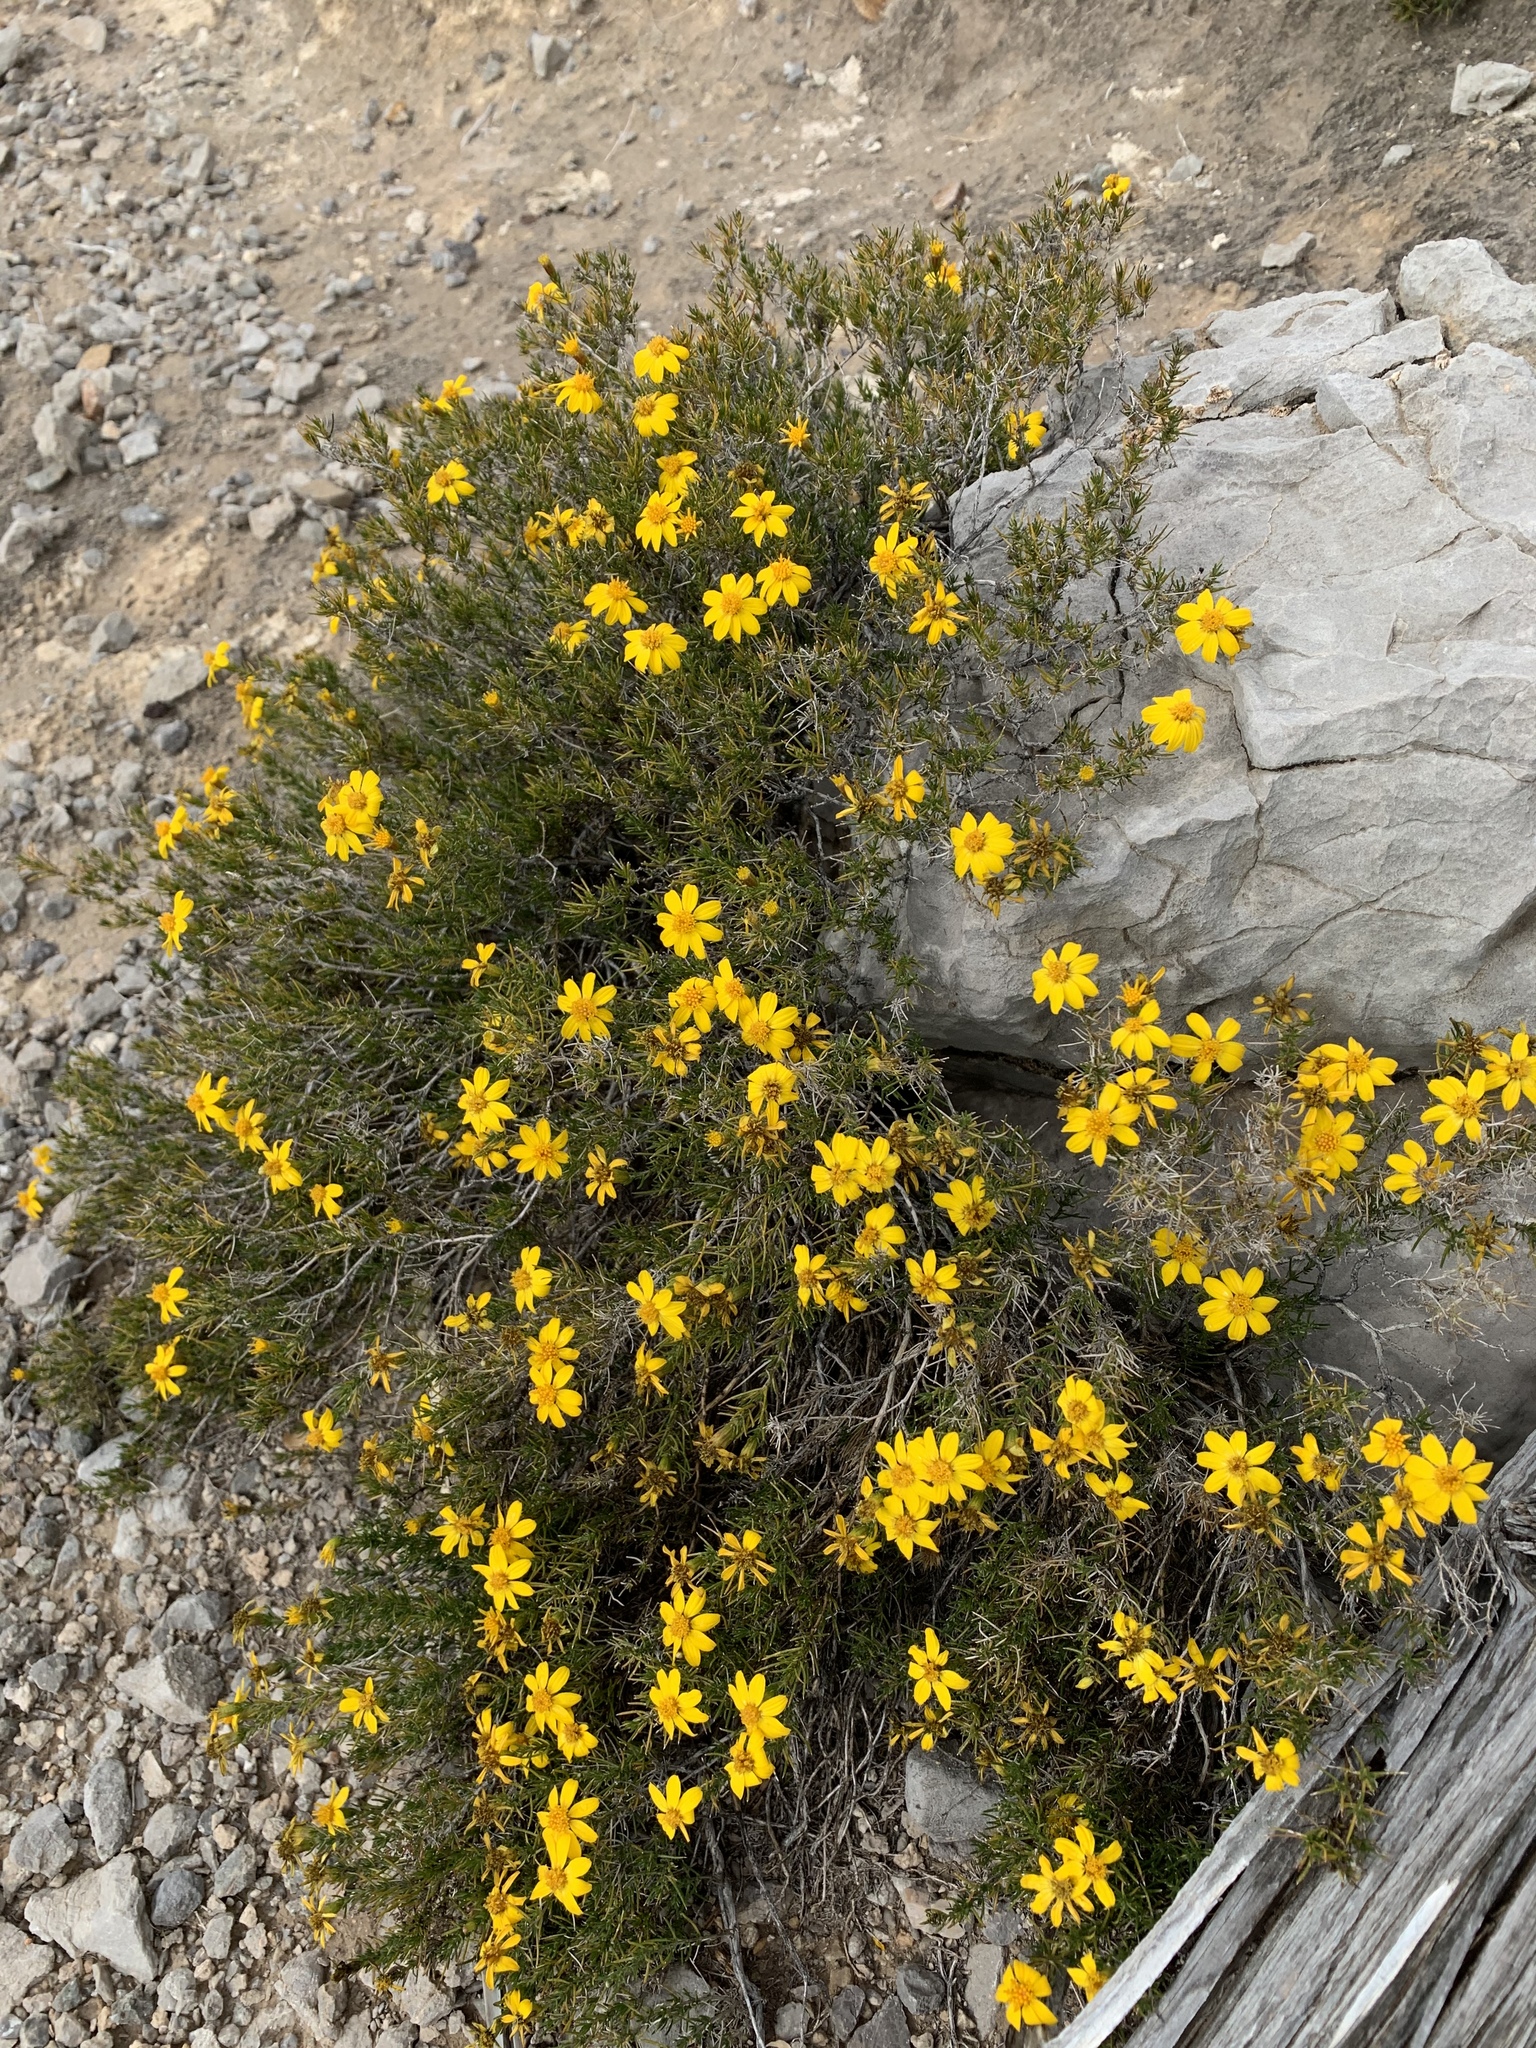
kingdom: Plantae
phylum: Tracheophyta
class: Magnoliopsida
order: Asterales
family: Asteraceae
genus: Thymophylla
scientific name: Thymophylla acerosa
